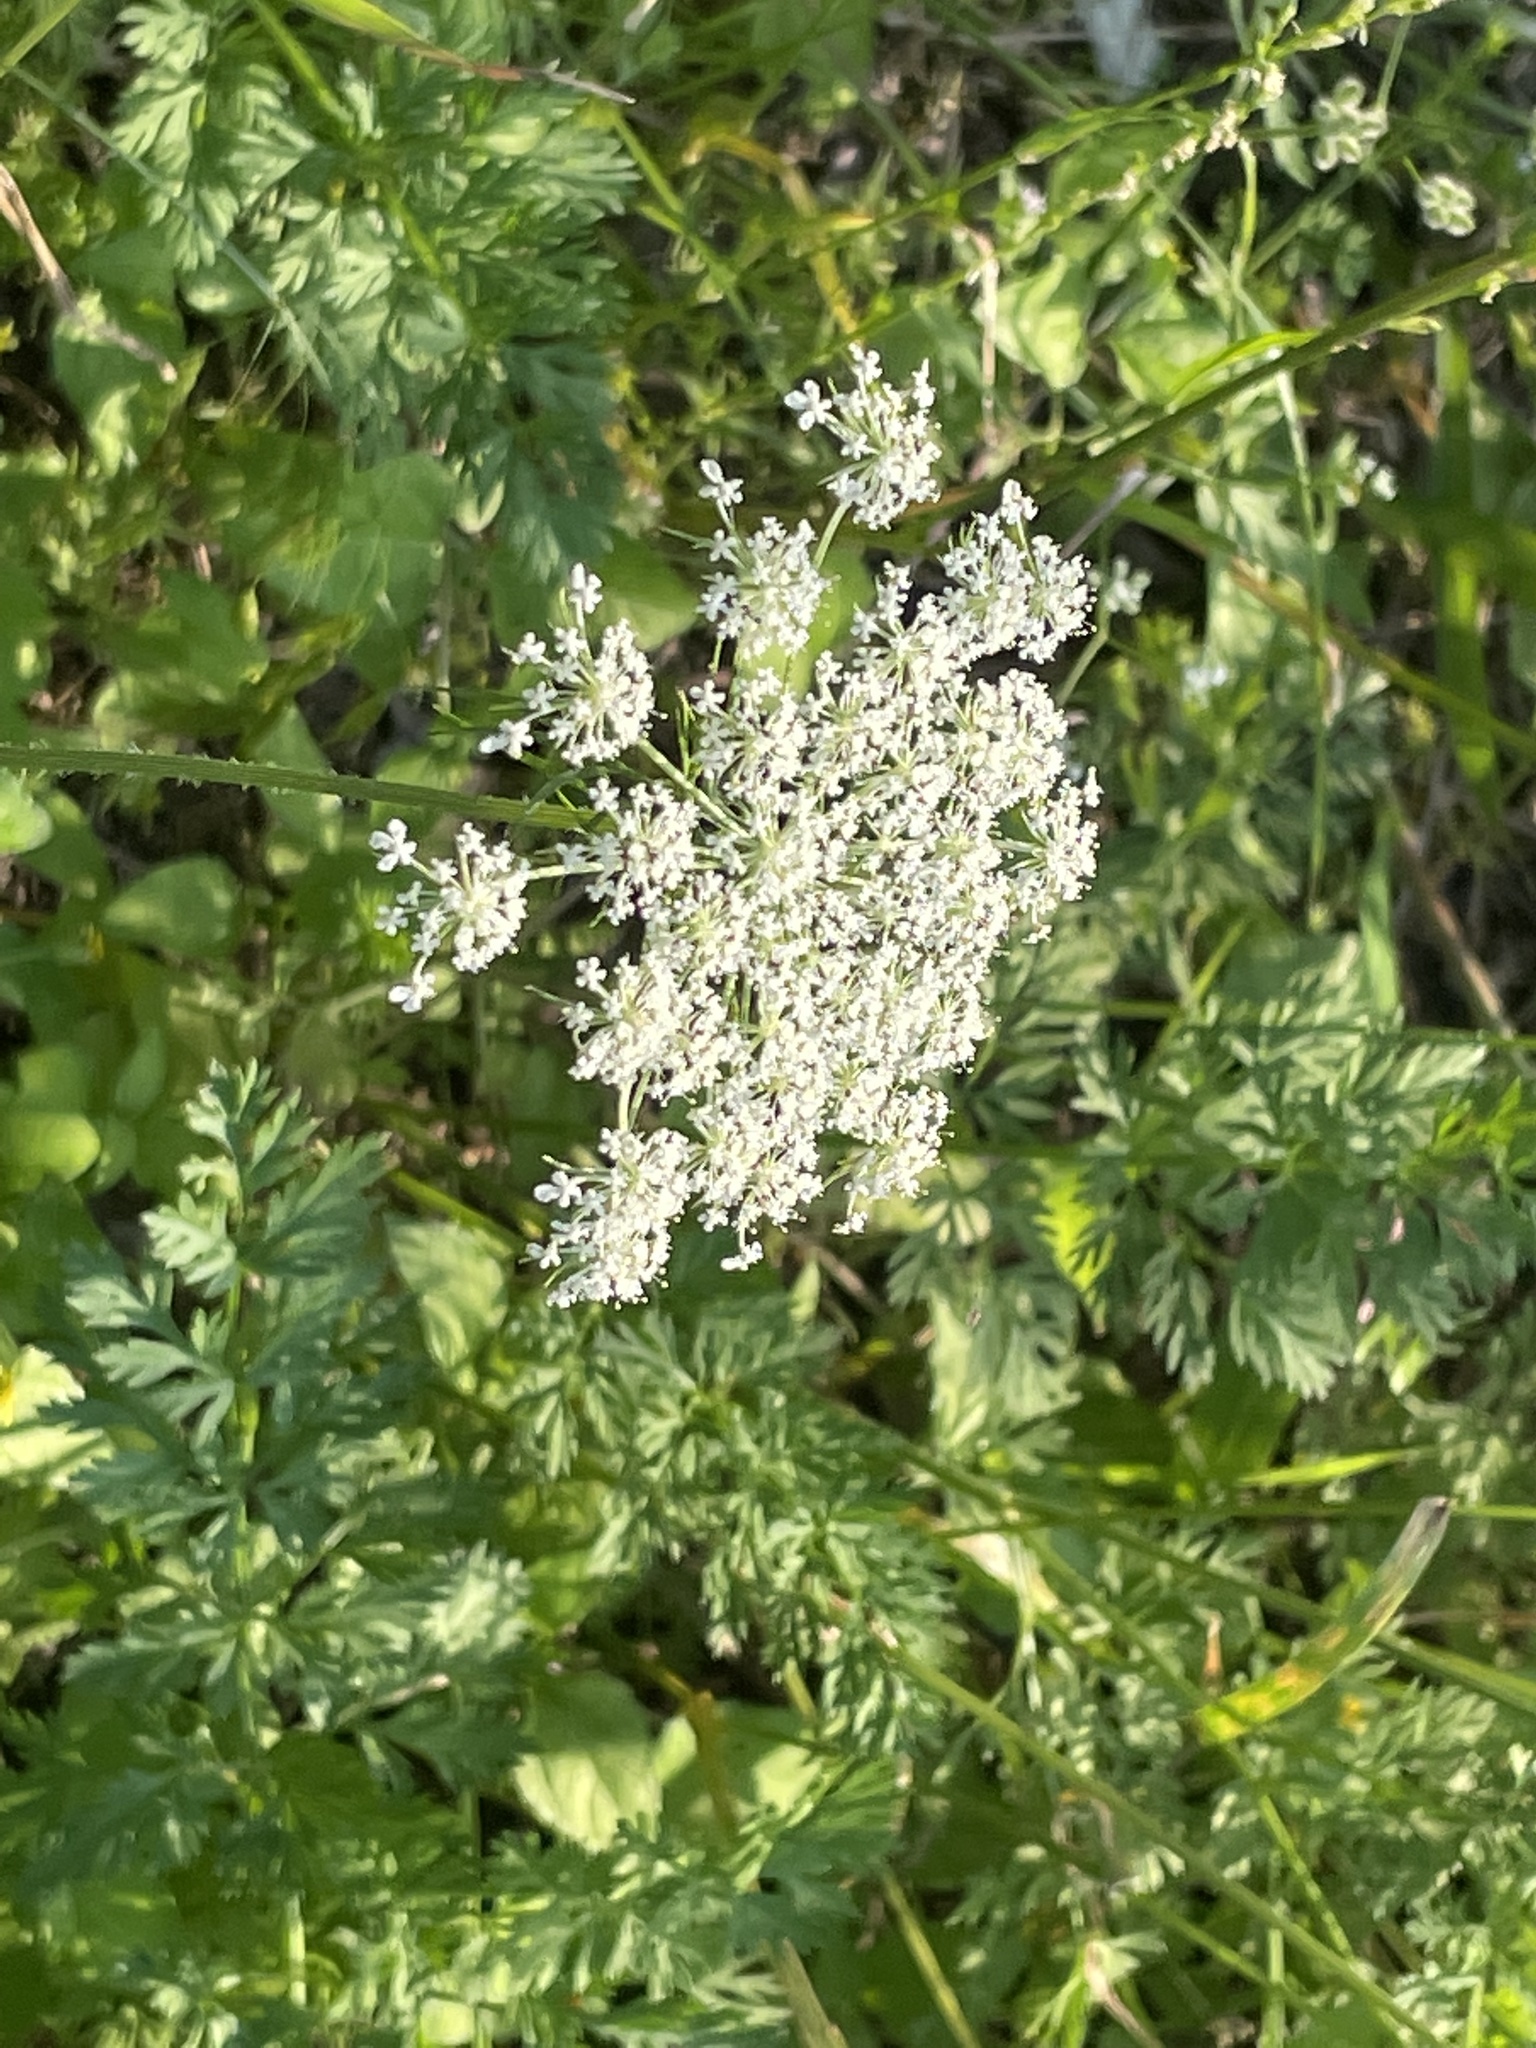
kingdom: Plantae
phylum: Tracheophyta
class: Magnoliopsida
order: Apiales
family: Apiaceae
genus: Daucus
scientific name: Daucus carota
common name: Wild carrot
